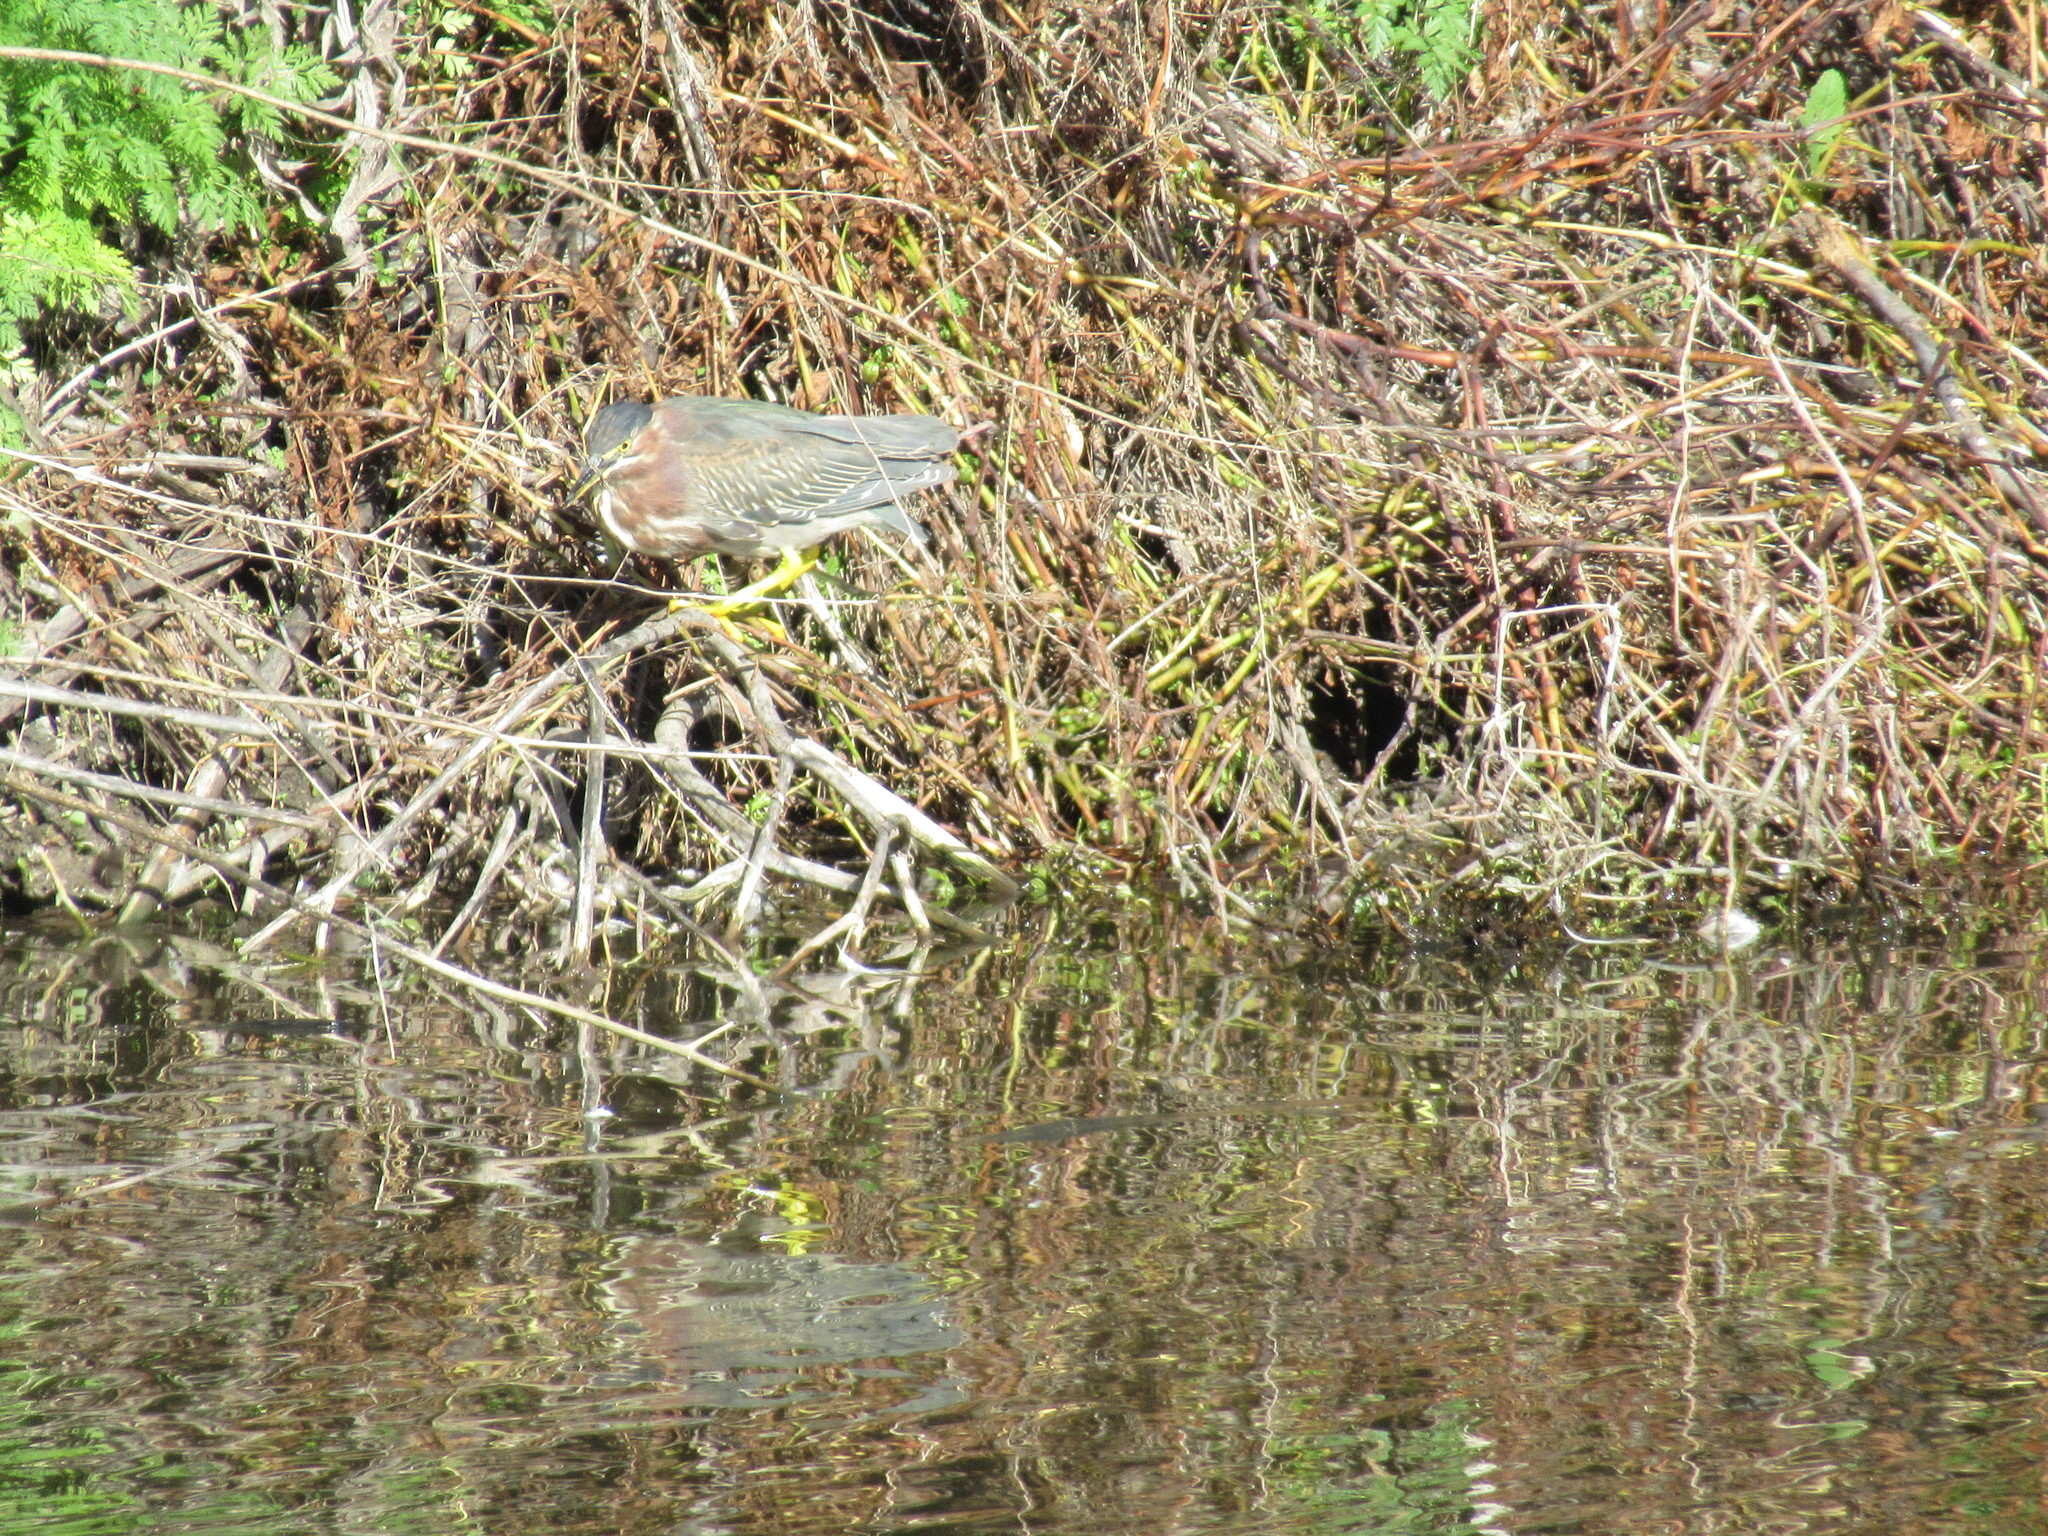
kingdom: Animalia
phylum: Chordata
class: Aves
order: Pelecaniformes
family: Ardeidae
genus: Butorides
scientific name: Butorides virescens
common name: Green heron
